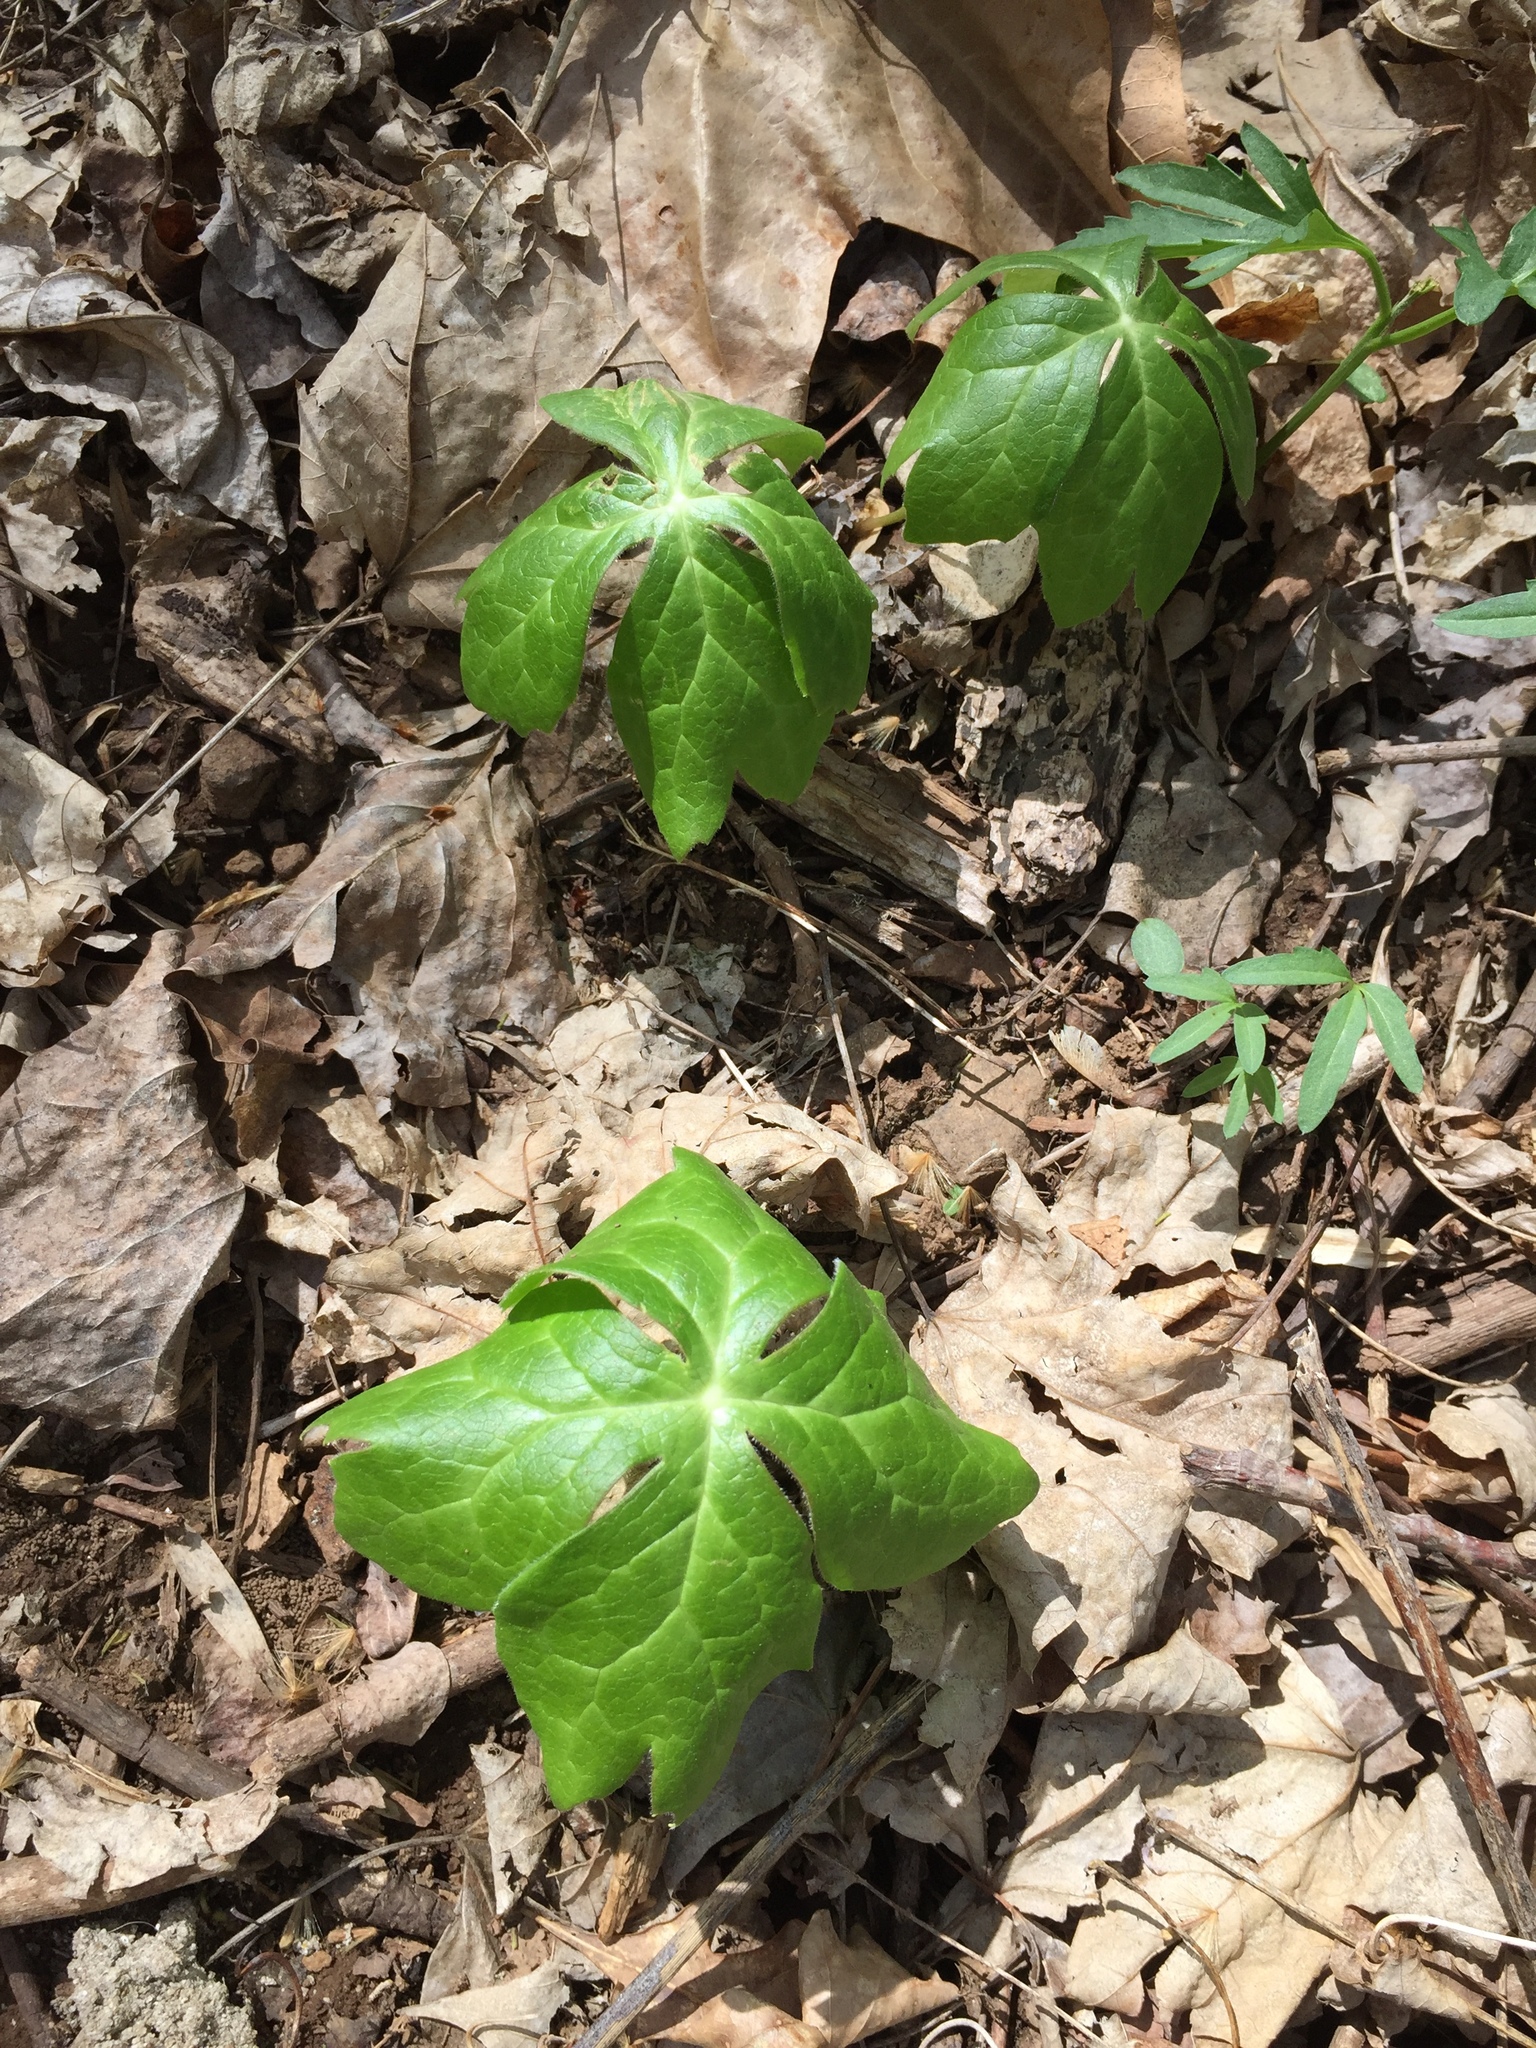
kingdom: Plantae
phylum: Tracheophyta
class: Magnoliopsida
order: Ranunculales
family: Berberidaceae
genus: Podophyllum
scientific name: Podophyllum peltatum
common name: Wild mandrake
